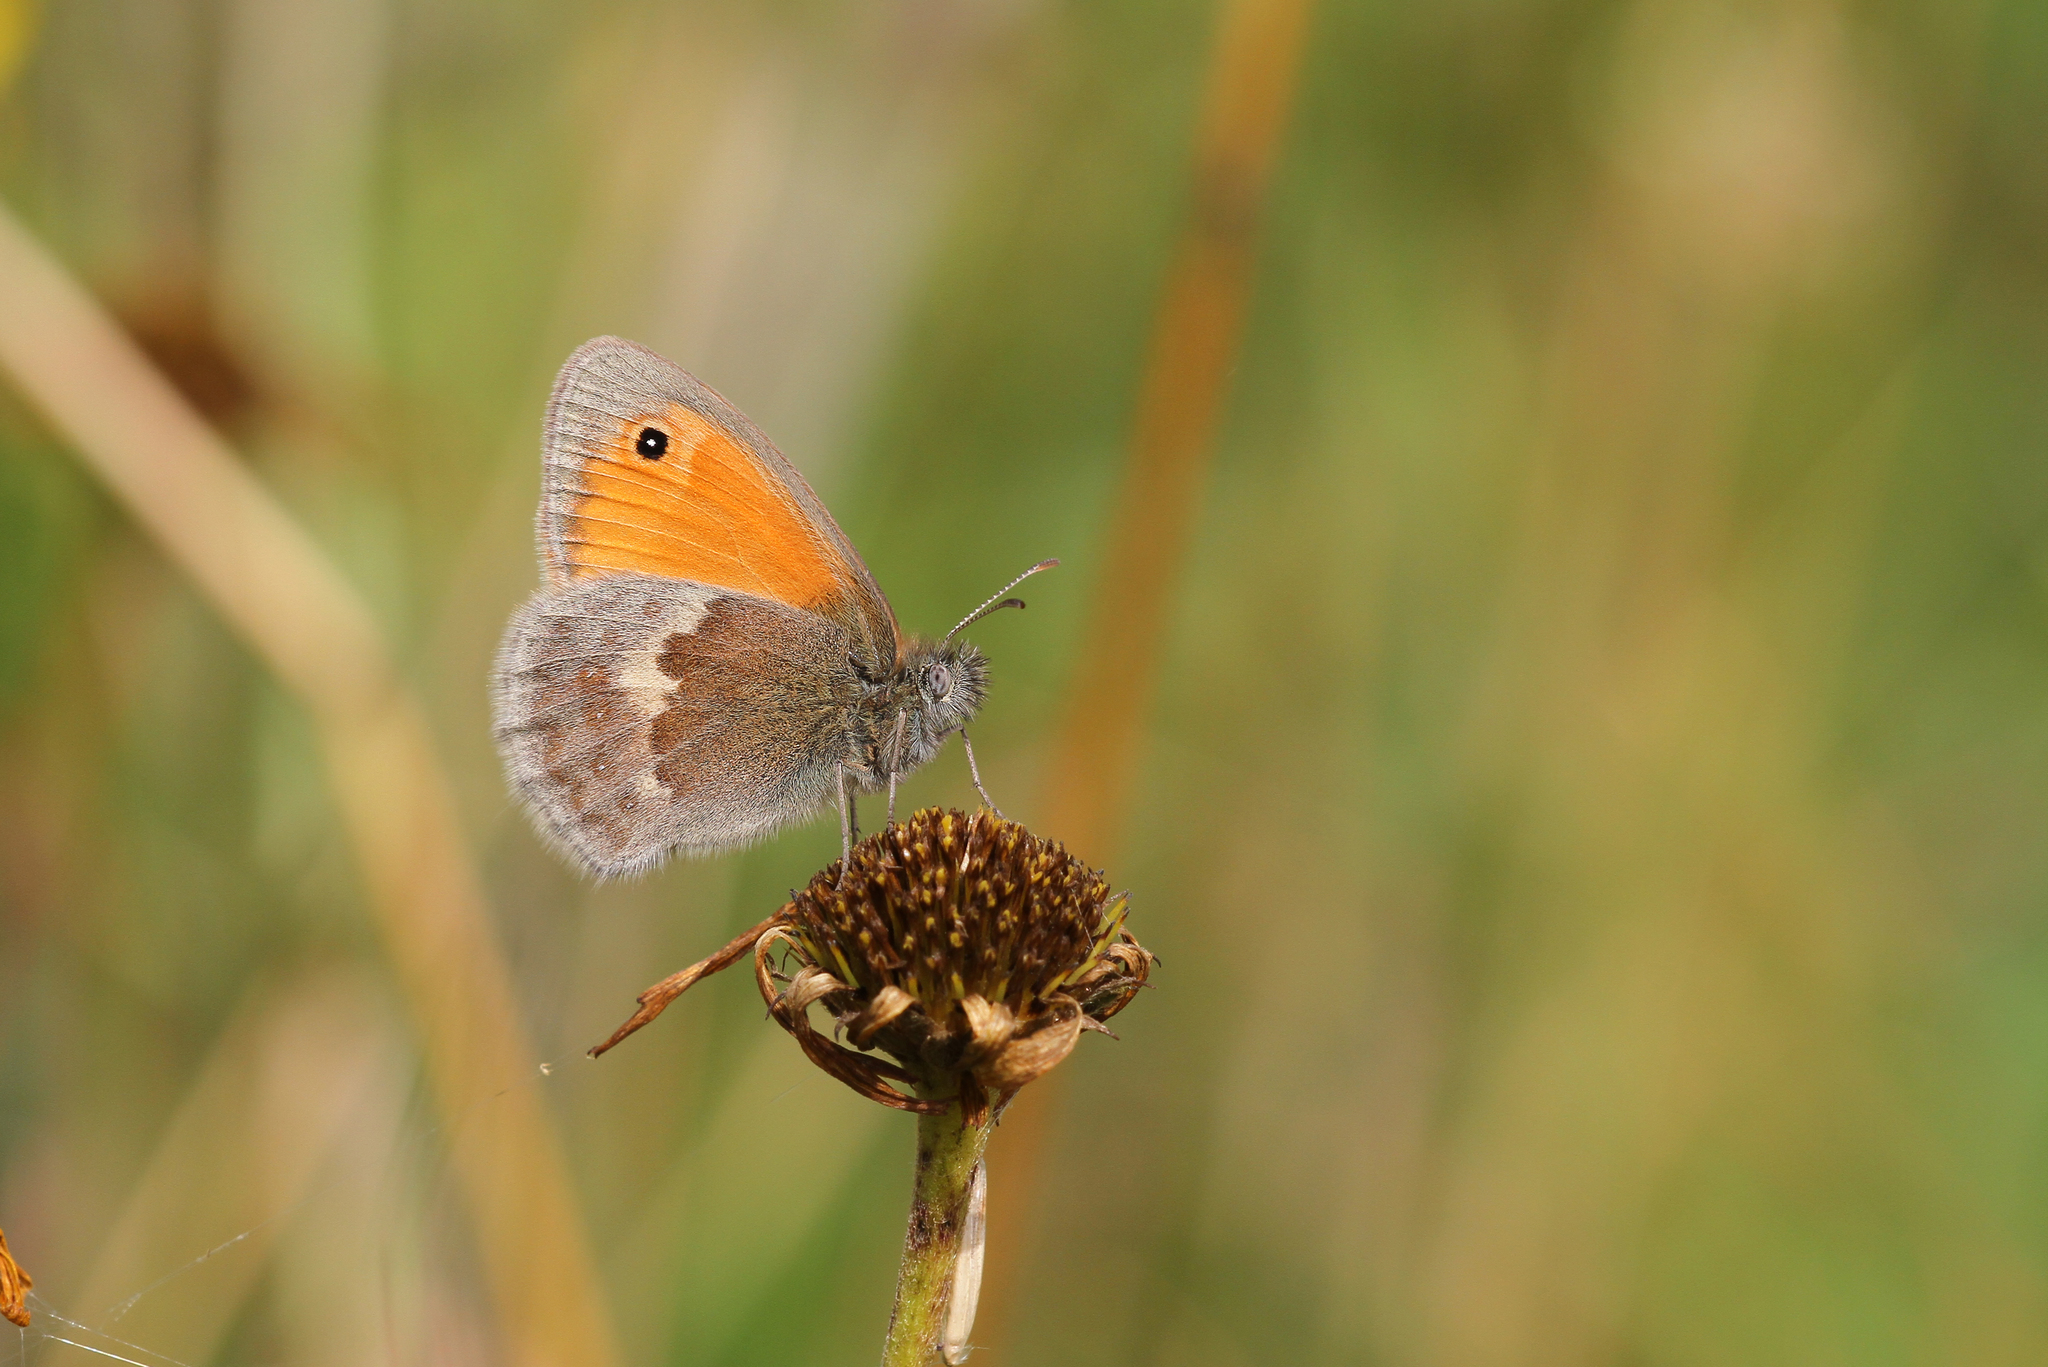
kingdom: Animalia
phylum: Arthropoda
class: Insecta
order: Lepidoptera
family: Nymphalidae
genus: Coenonympha
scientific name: Coenonympha pamphilus
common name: Small heath
